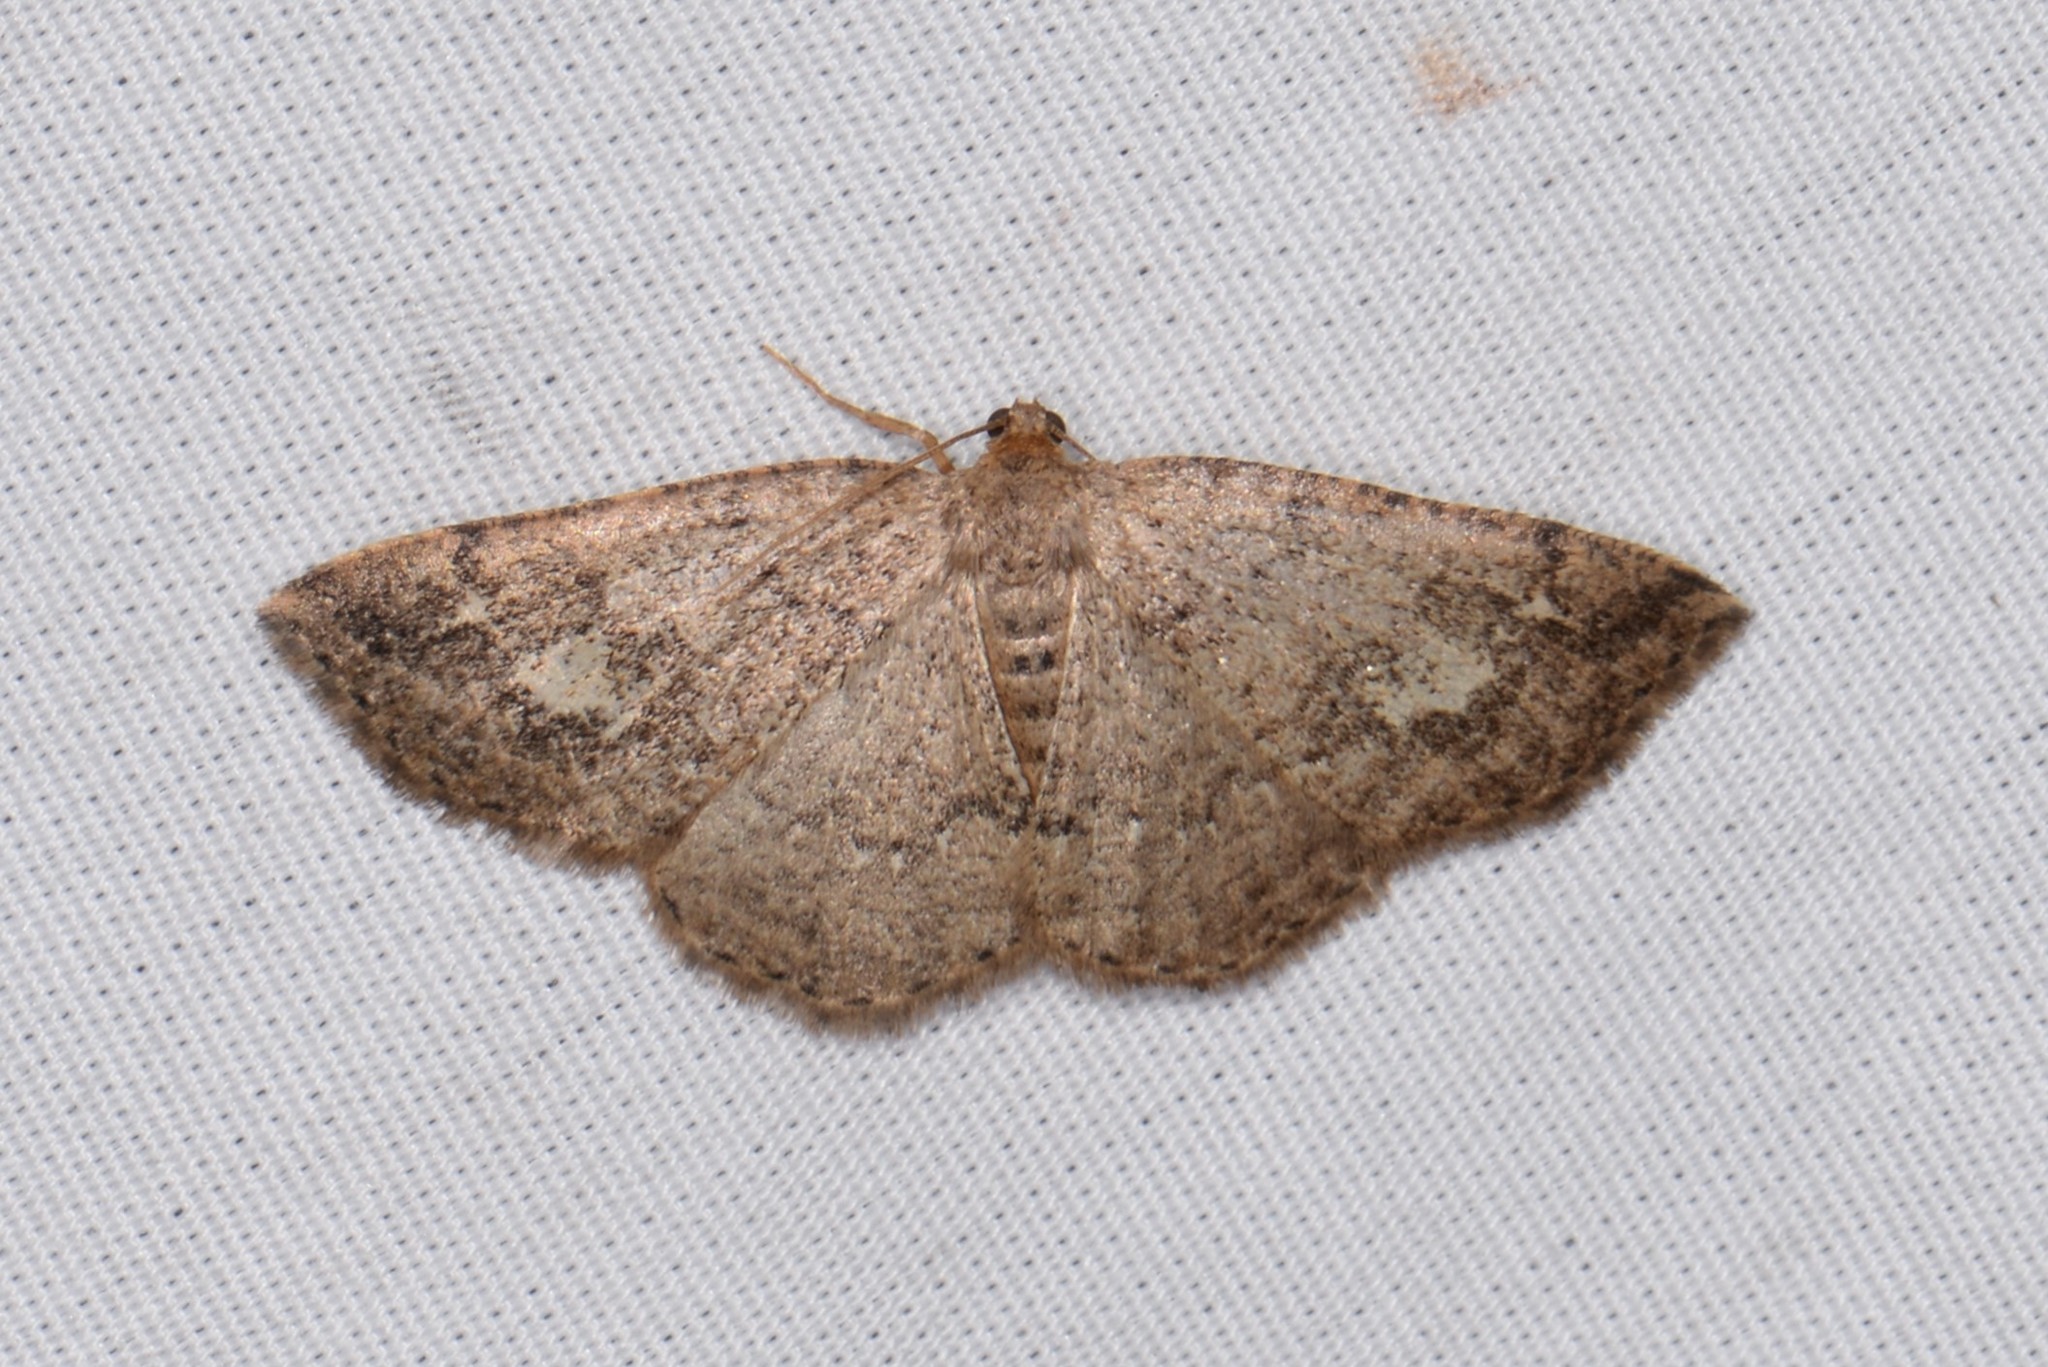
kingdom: Animalia
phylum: Arthropoda
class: Insecta
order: Lepidoptera
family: Geometridae
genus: Homochlodes
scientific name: Homochlodes fritillaria
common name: Pale homochlodes
